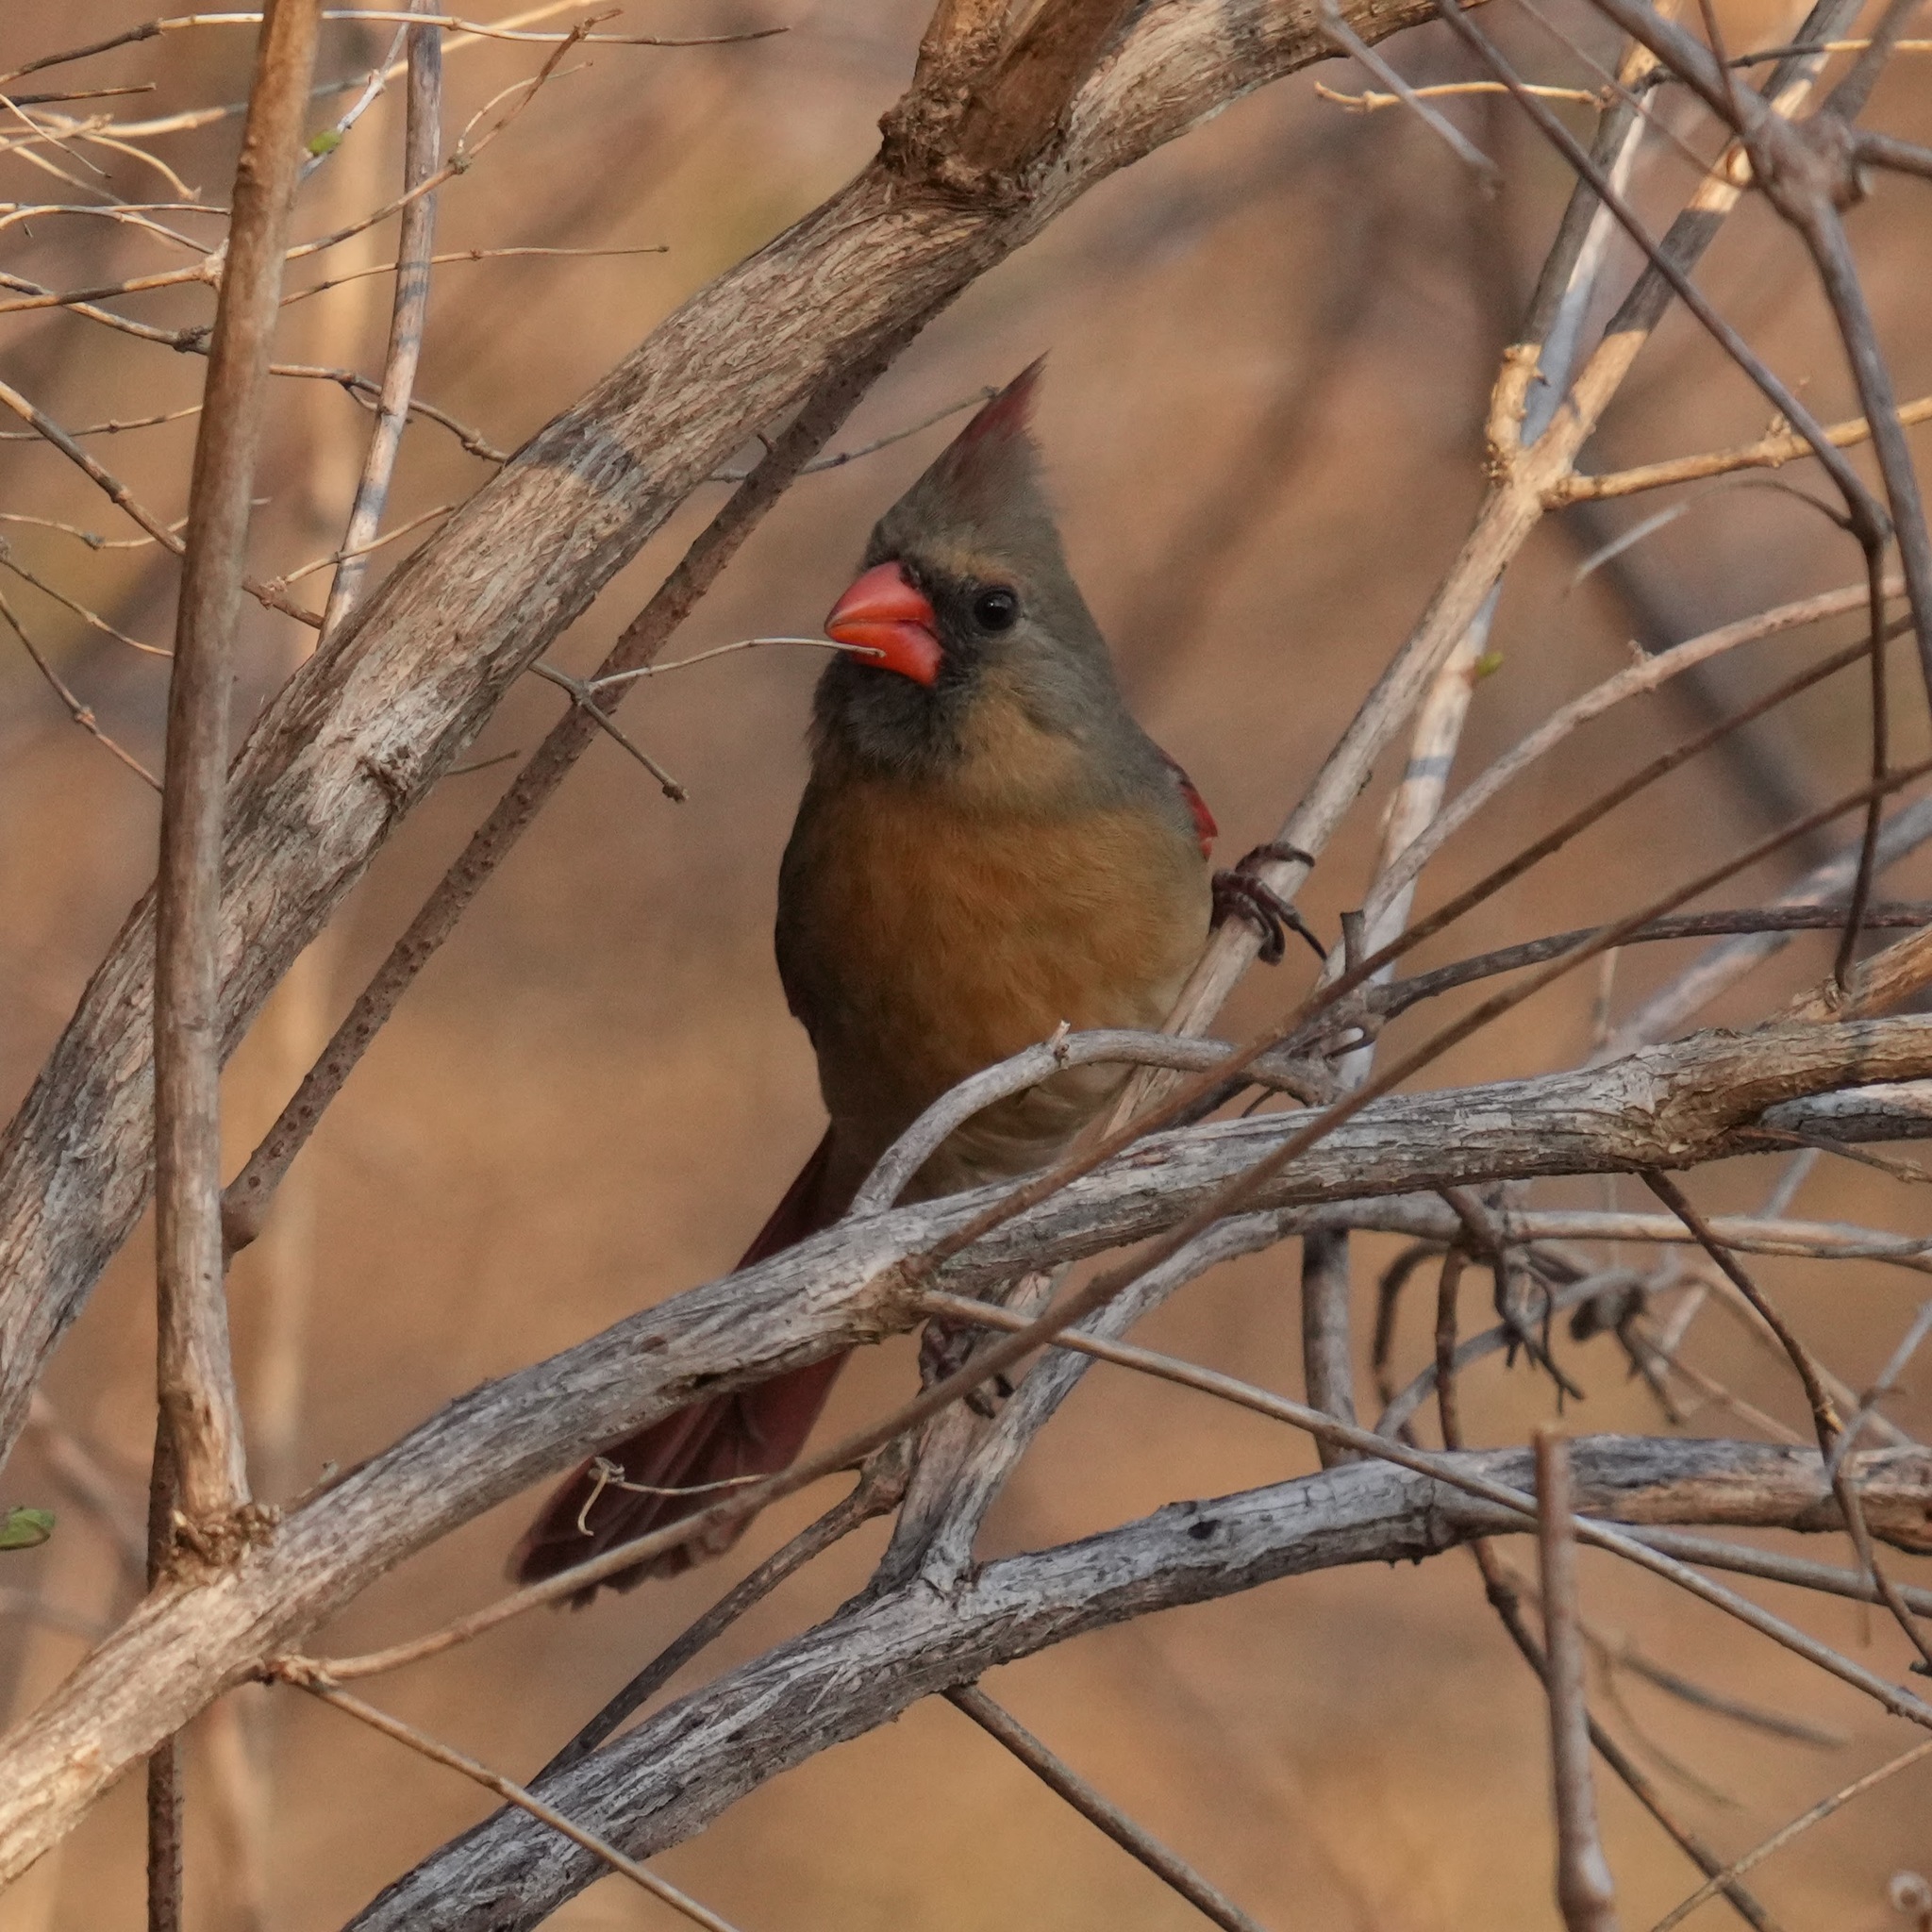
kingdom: Animalia
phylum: Chordata
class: Aves
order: Passeriformes
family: Cardinalidae
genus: Cardinalis
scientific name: Cardinalis cardinalis
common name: Northern cardinal
